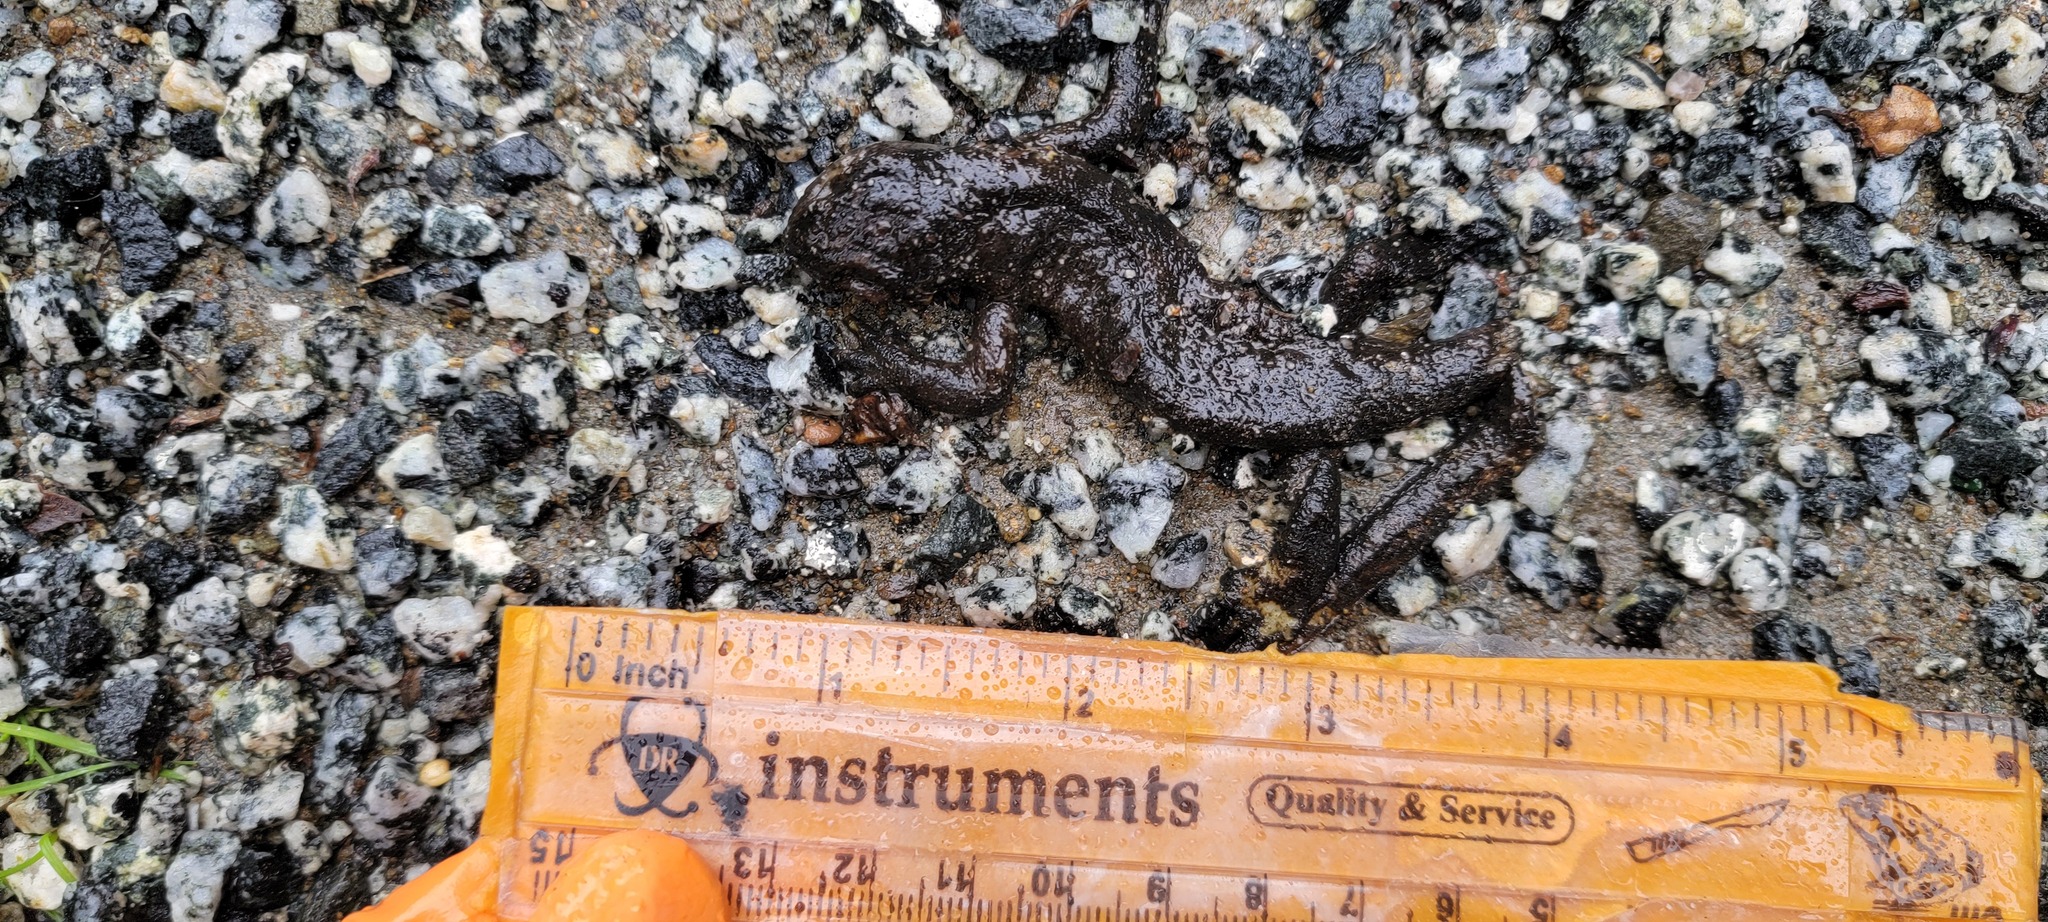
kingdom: Animalia
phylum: Chordata
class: Amphibia
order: Caudata
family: Salamandridae
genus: Taricha
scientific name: Taricha
